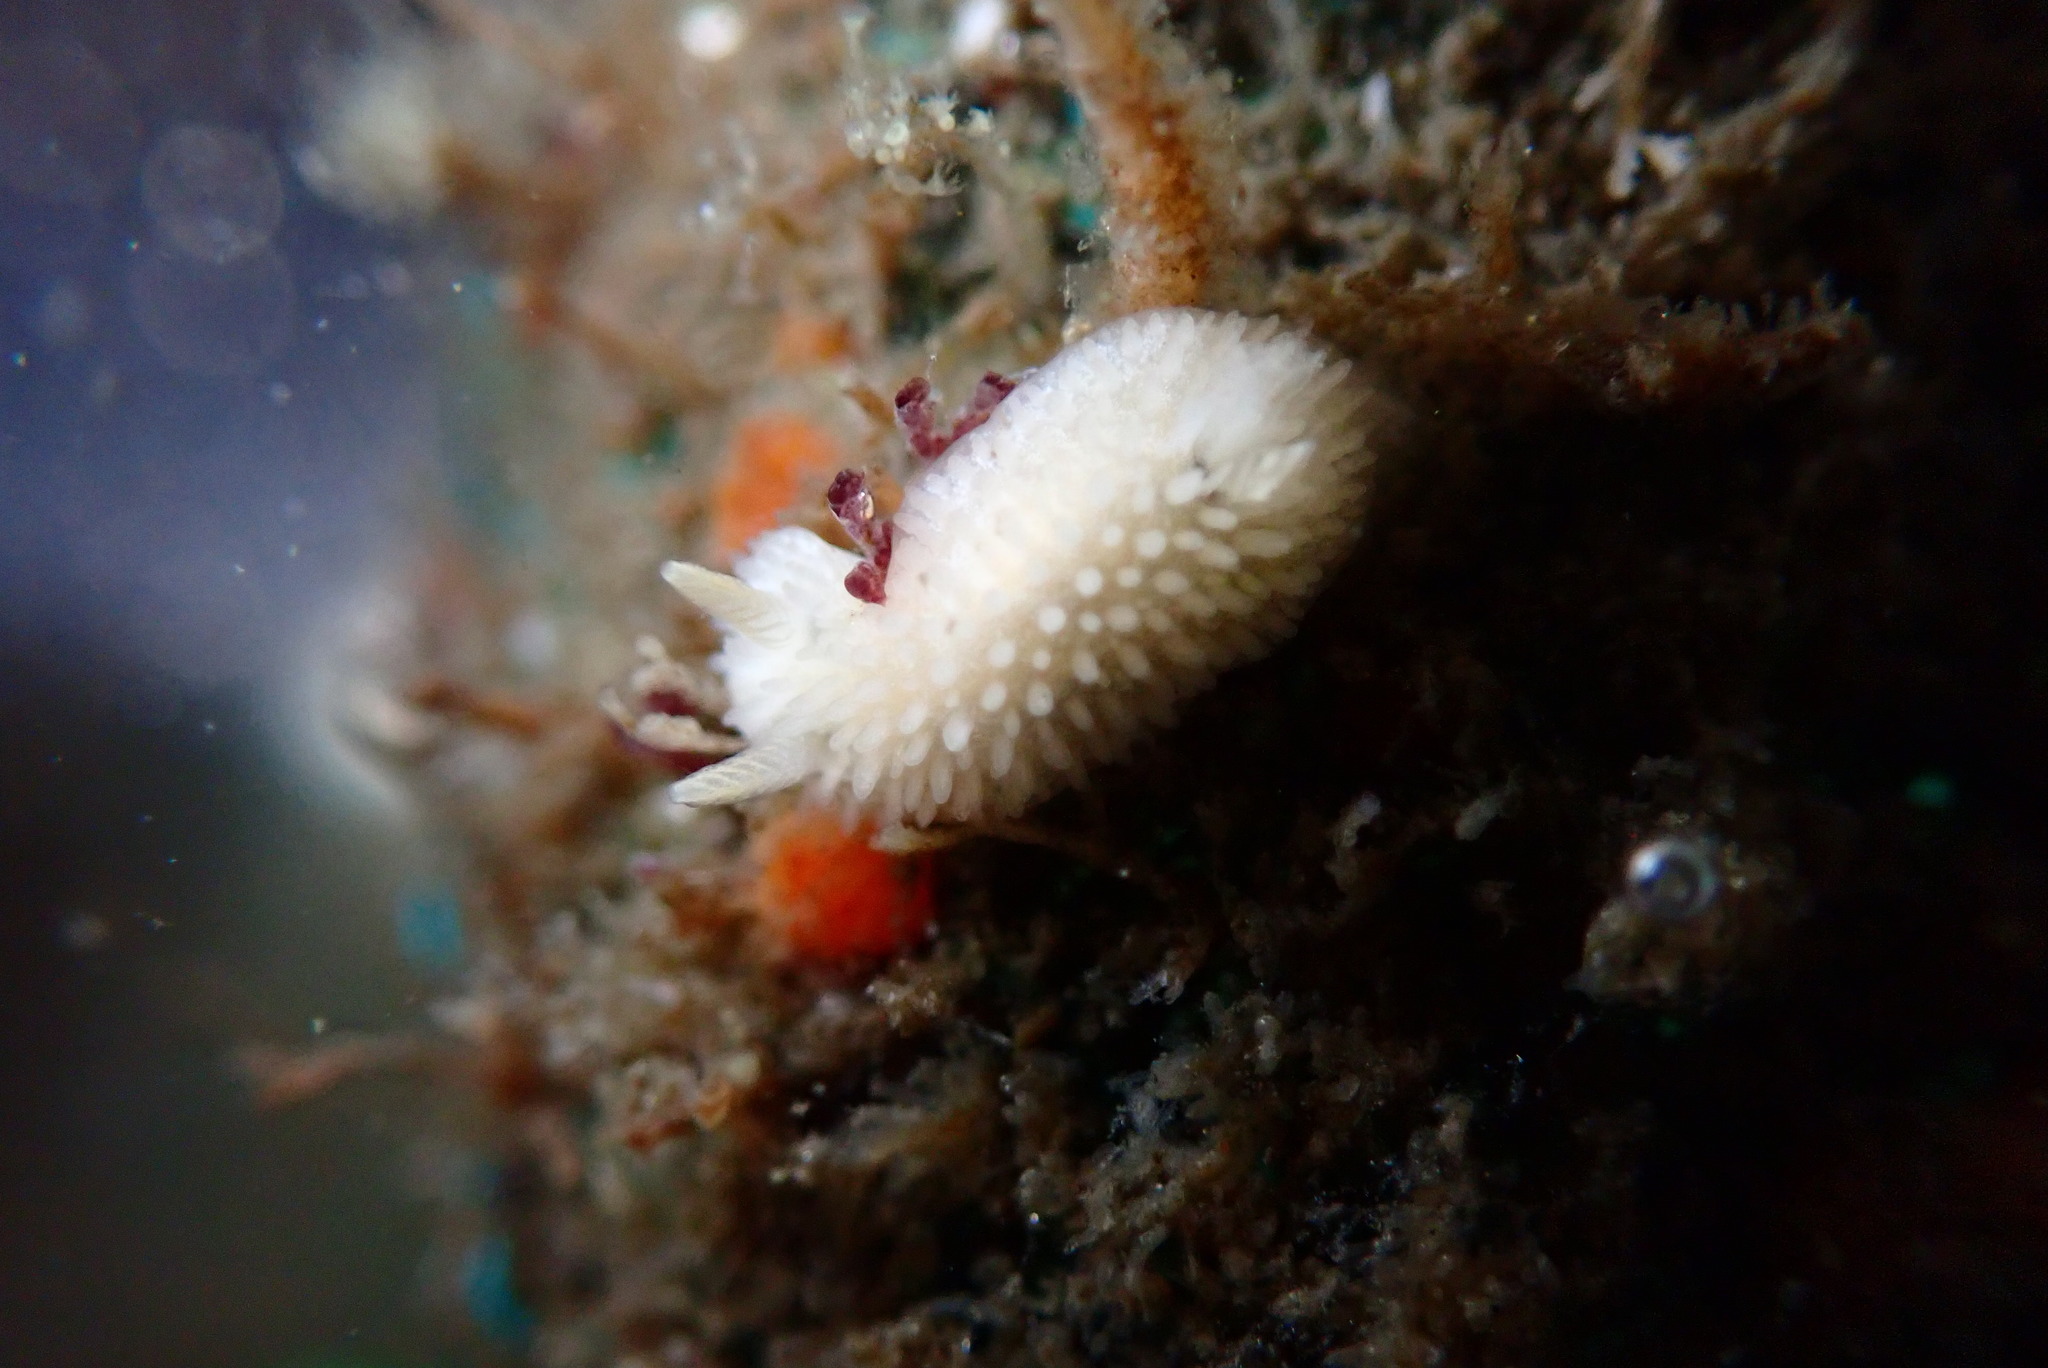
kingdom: Animalia
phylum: Mollusca
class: Gastropoda
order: Nudibranchia
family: Calycidorididae
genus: Diaphorodoris
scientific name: Diaphorodoris lirulatocauda
